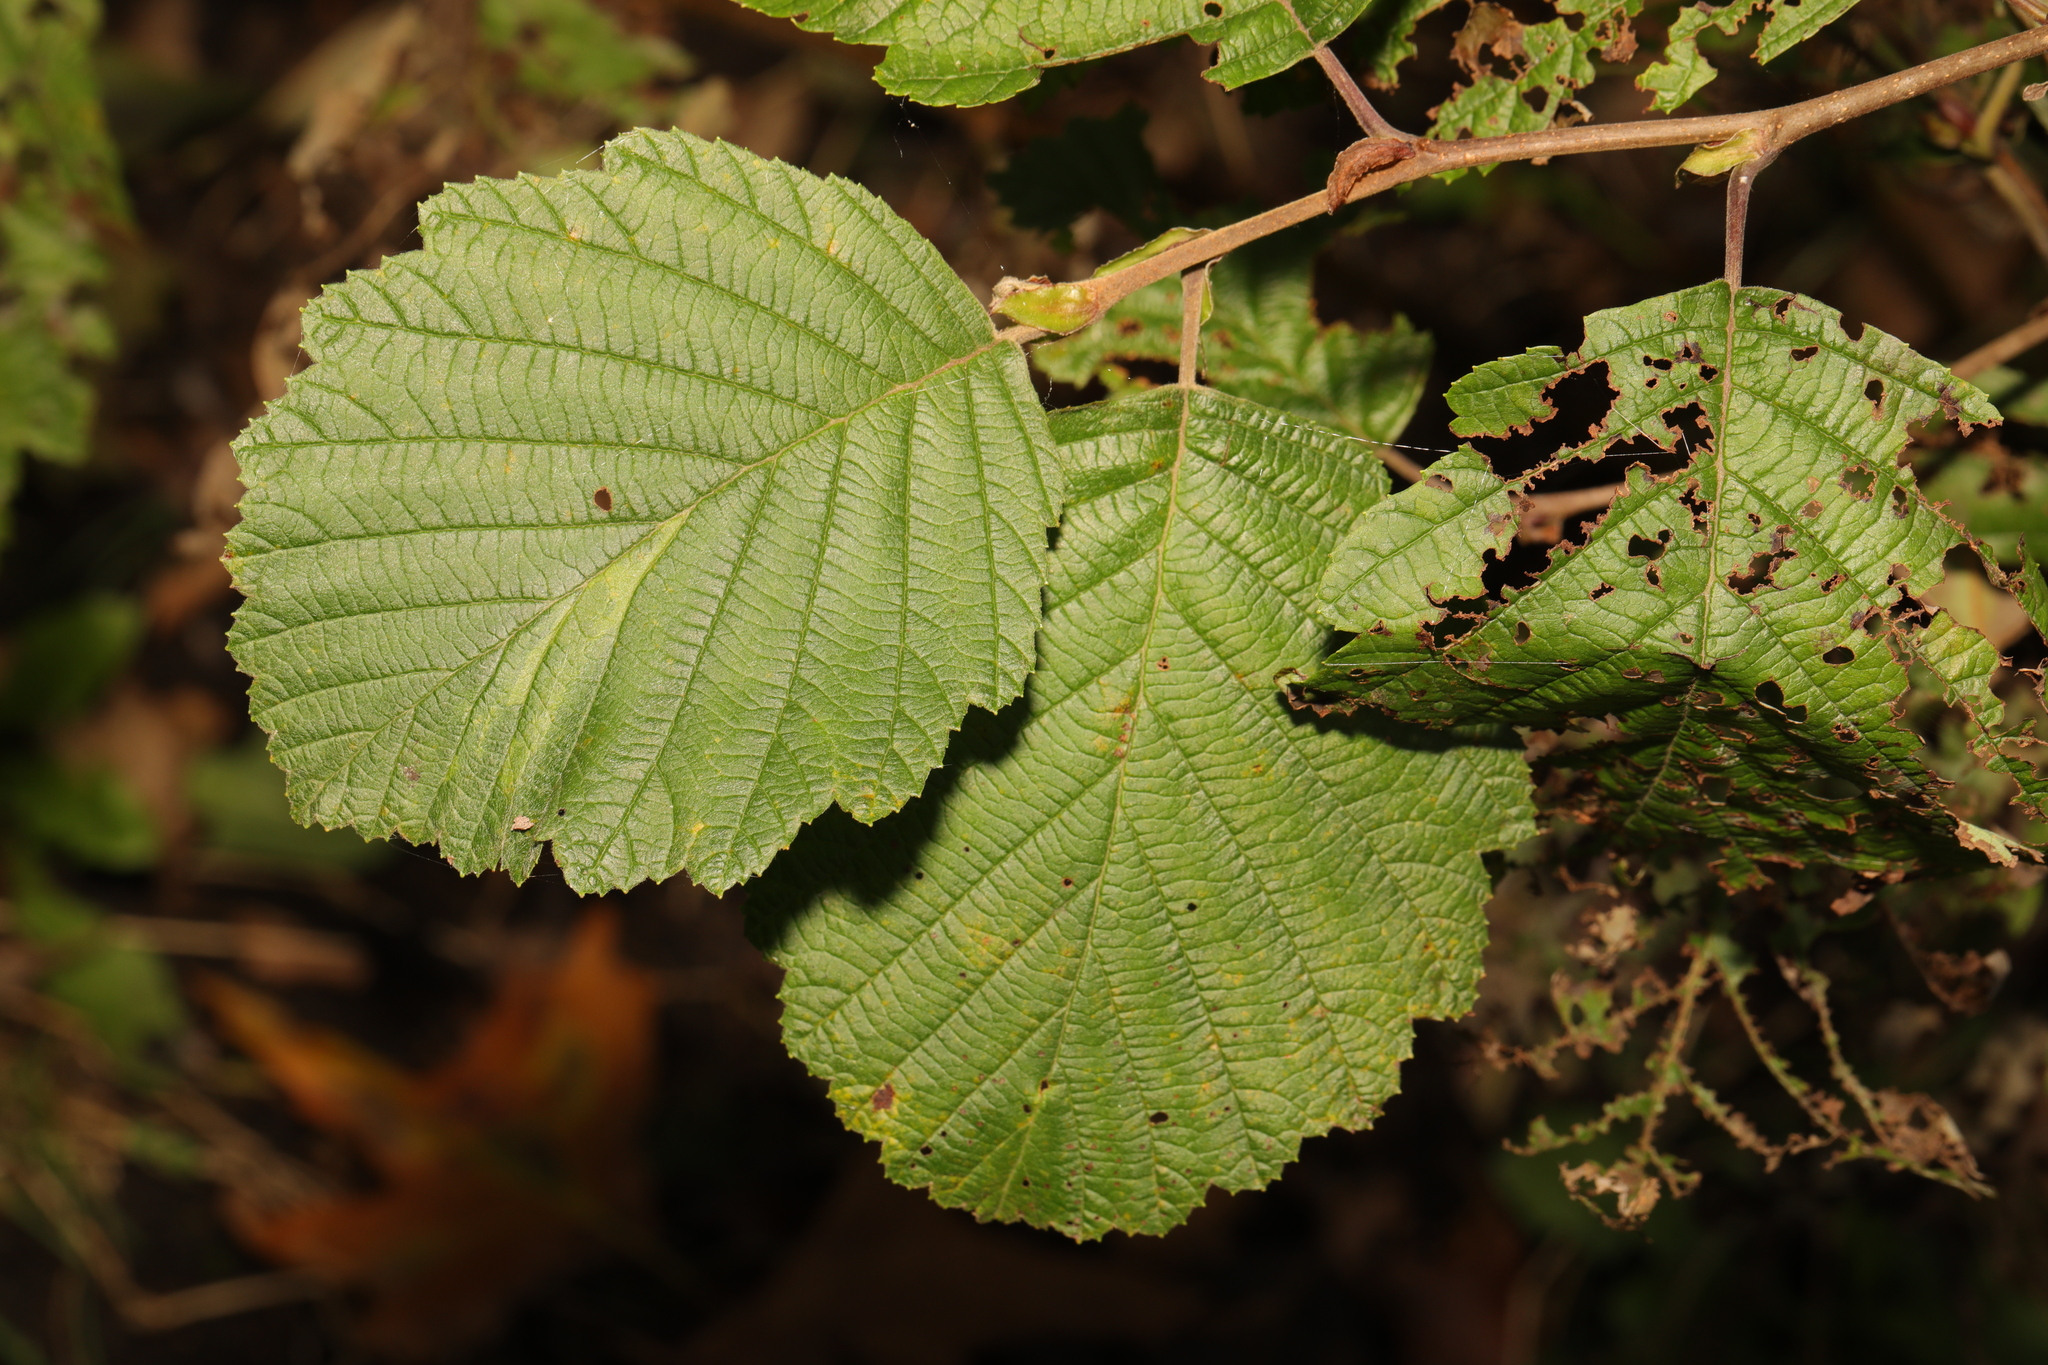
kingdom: Plantae
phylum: Tracheophyta
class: Magnoliopsida
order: Fagales
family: Betulaceae
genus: Alnus
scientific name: Alnus incana
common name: Grey alder
